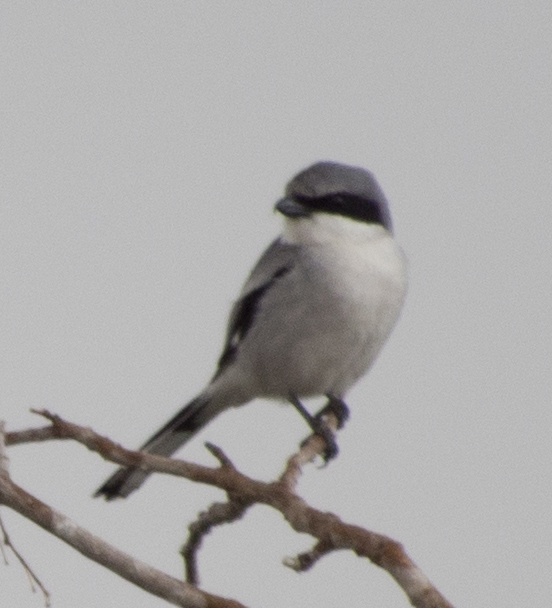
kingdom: Animalia
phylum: Chordata
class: Aves
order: Passeriformes
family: Laniidae
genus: Lanius
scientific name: Lanius ludovicianus
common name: Loggerhead shrike
